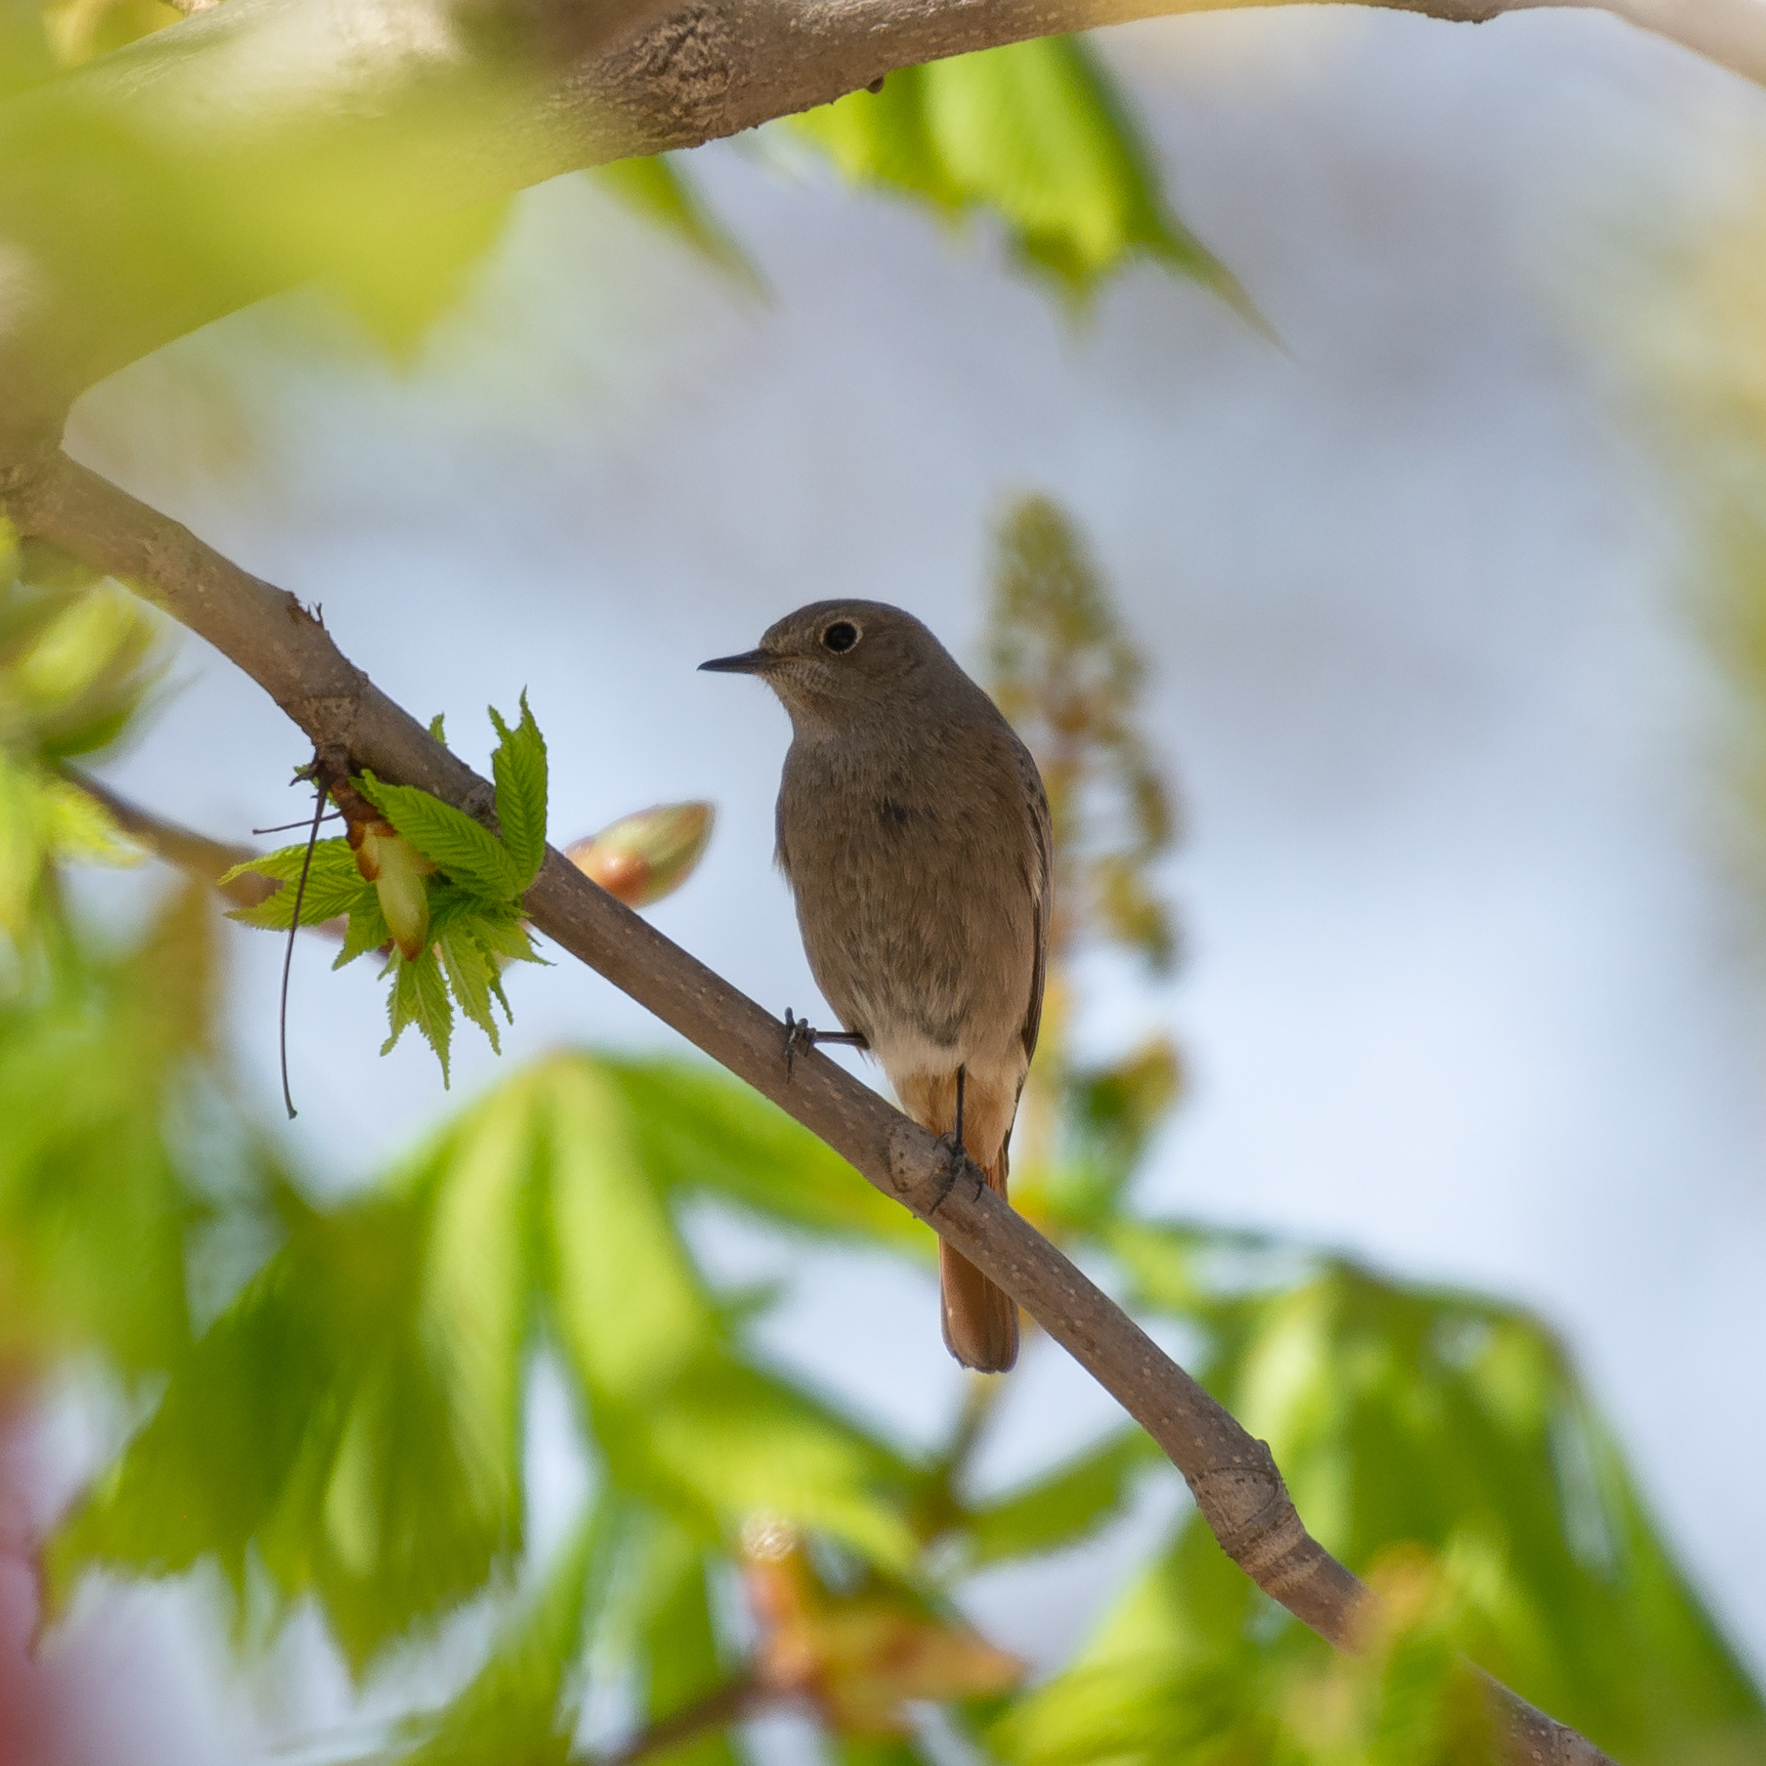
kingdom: Animalia
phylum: Chordata
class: Aves
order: Passeriformes
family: Muscicapidae
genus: Phoenicurus
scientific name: Phoenicurus ochruros
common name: Black redstart
